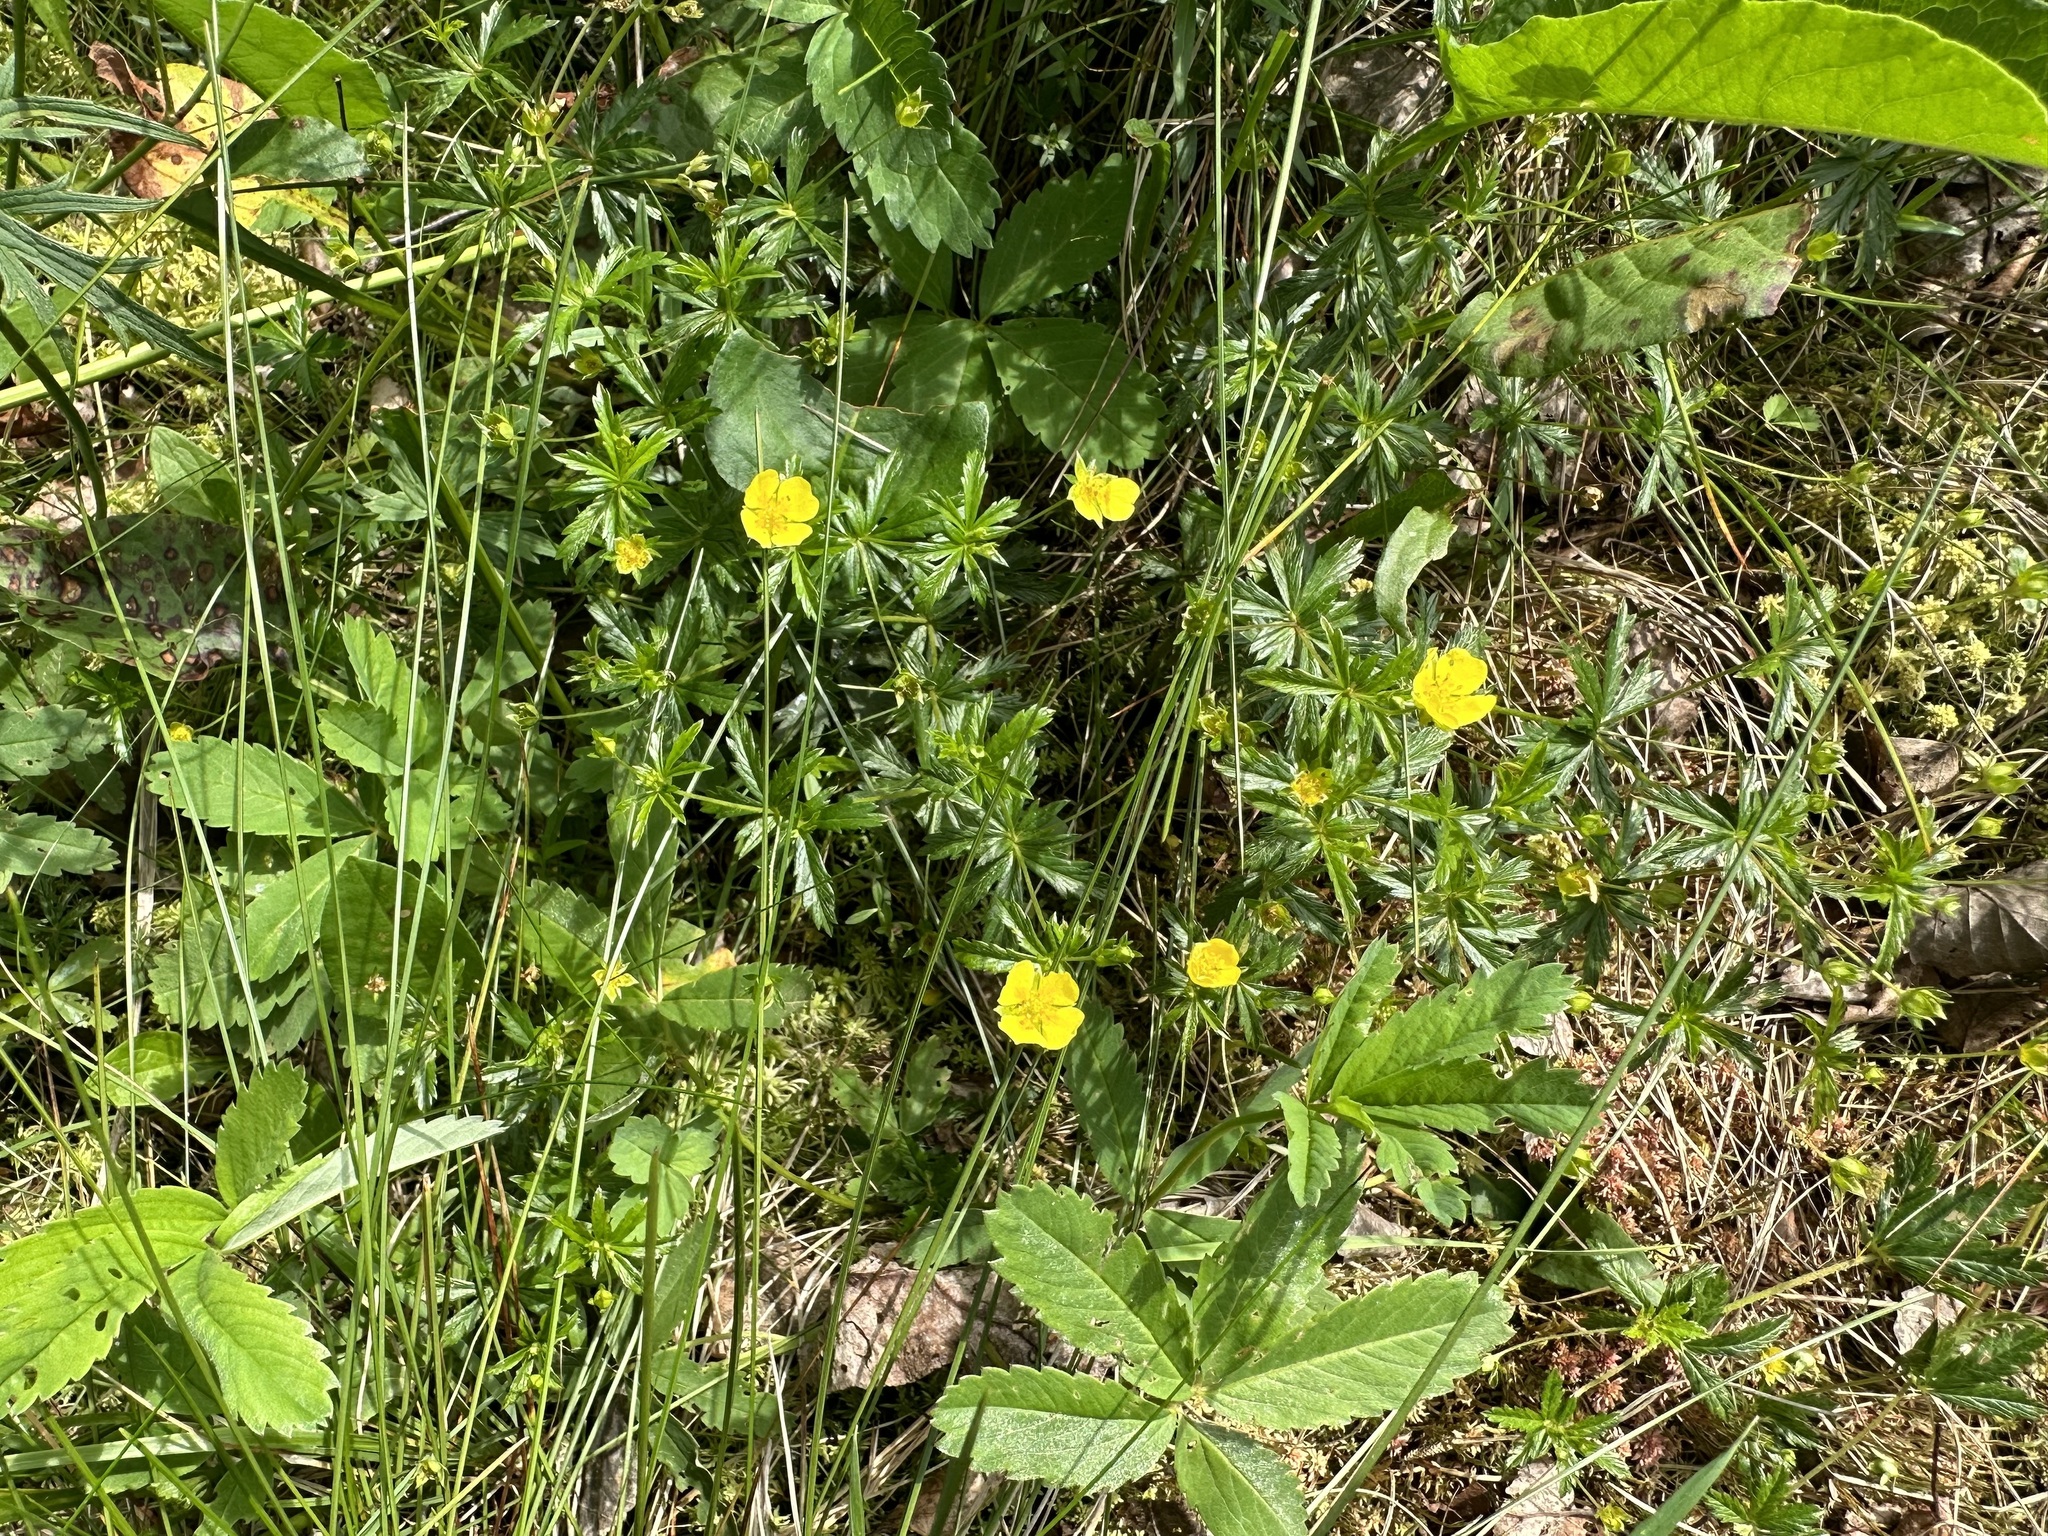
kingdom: Plantae
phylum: Tracheophyta
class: Magnoliopsida
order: Rosales
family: Rosaceae
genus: Potentilla
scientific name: Potentilla erecta
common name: Tormentil
